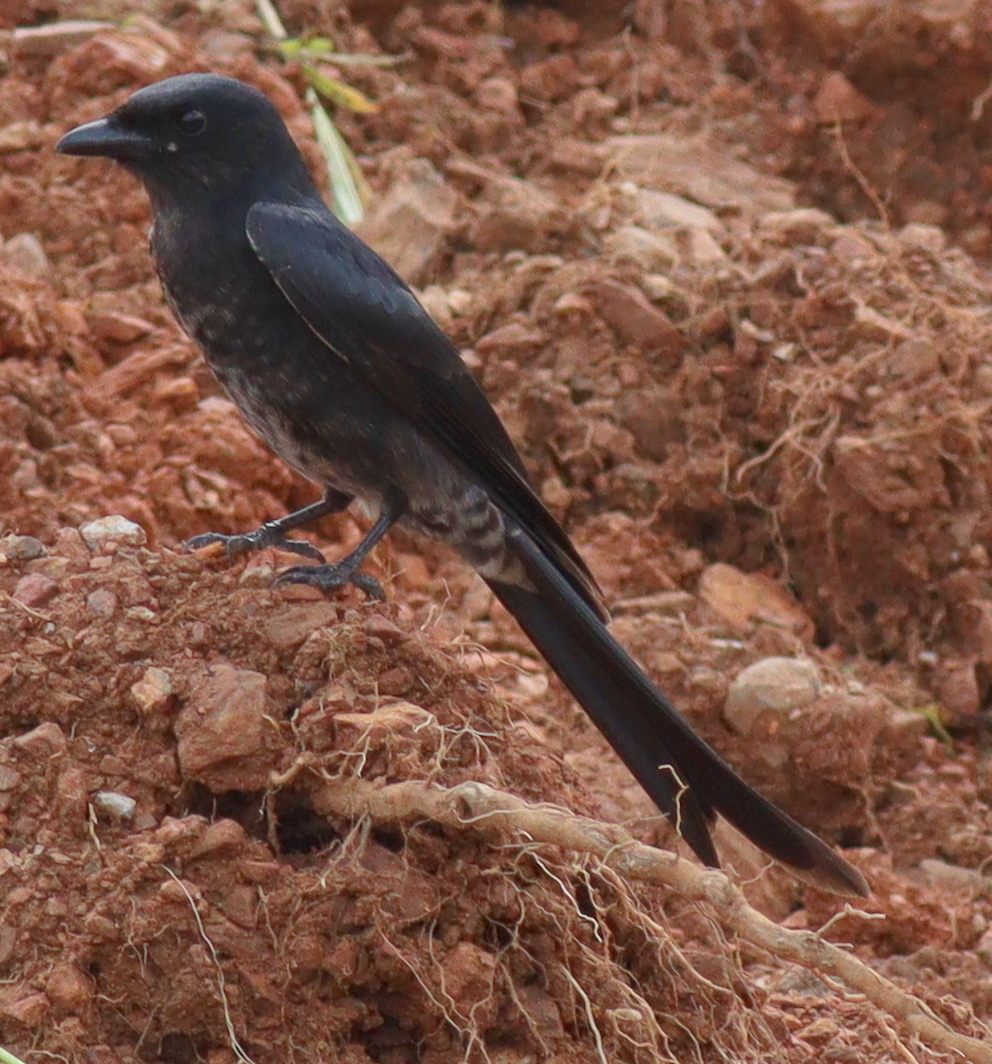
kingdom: Animalia
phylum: Chordata
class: Aves
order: Passeriformes
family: Dicruridae
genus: Dicrurus
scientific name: Dicrurus macrocercus
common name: Black drongo
